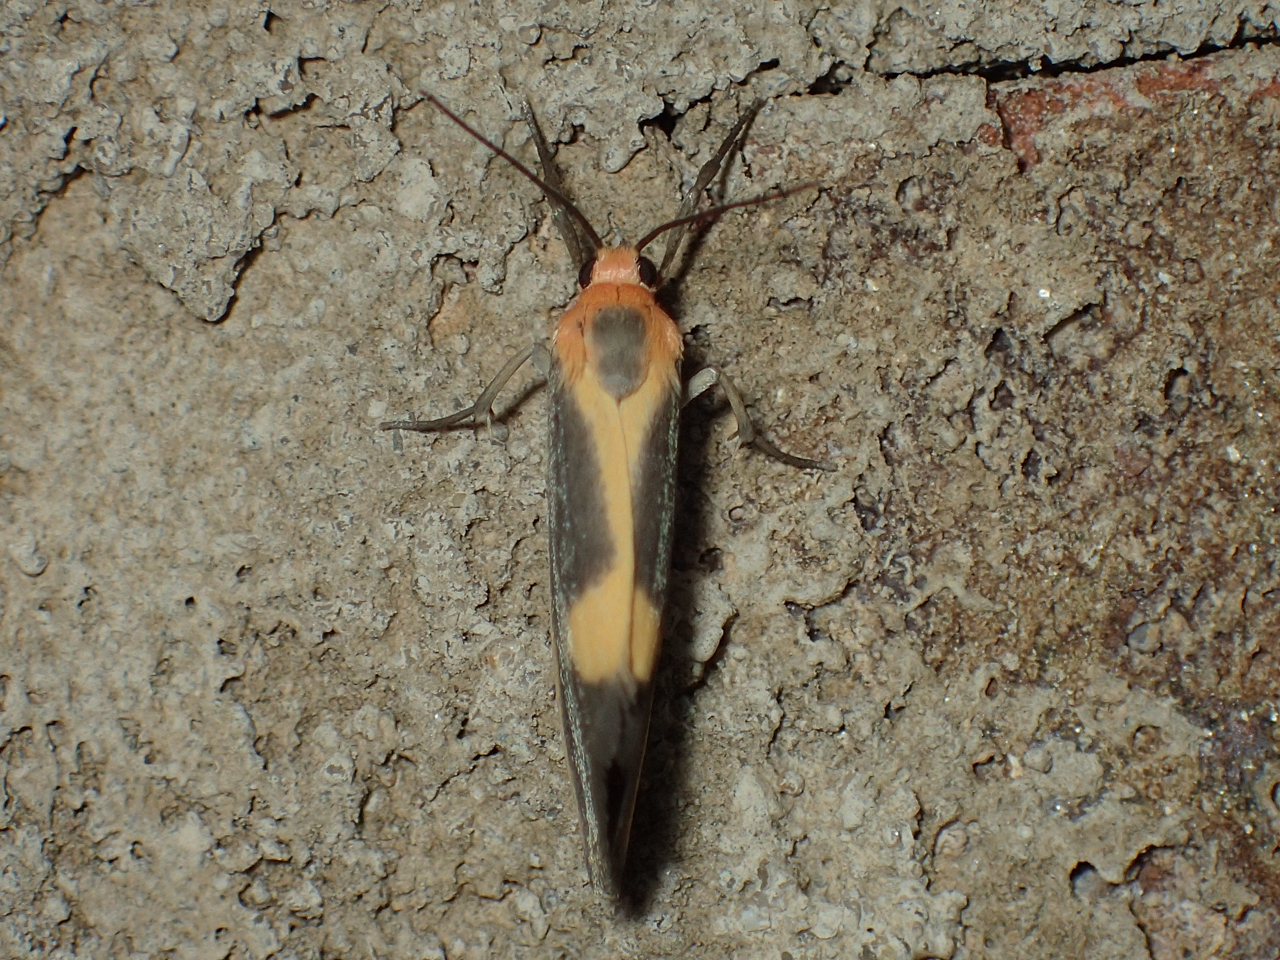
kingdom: Animalia
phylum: Arthropoda
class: Insecta
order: Lepidoptera
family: Erebidae
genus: Cisthene
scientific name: Cisthene plumbea
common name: Lead colored lichen moth
